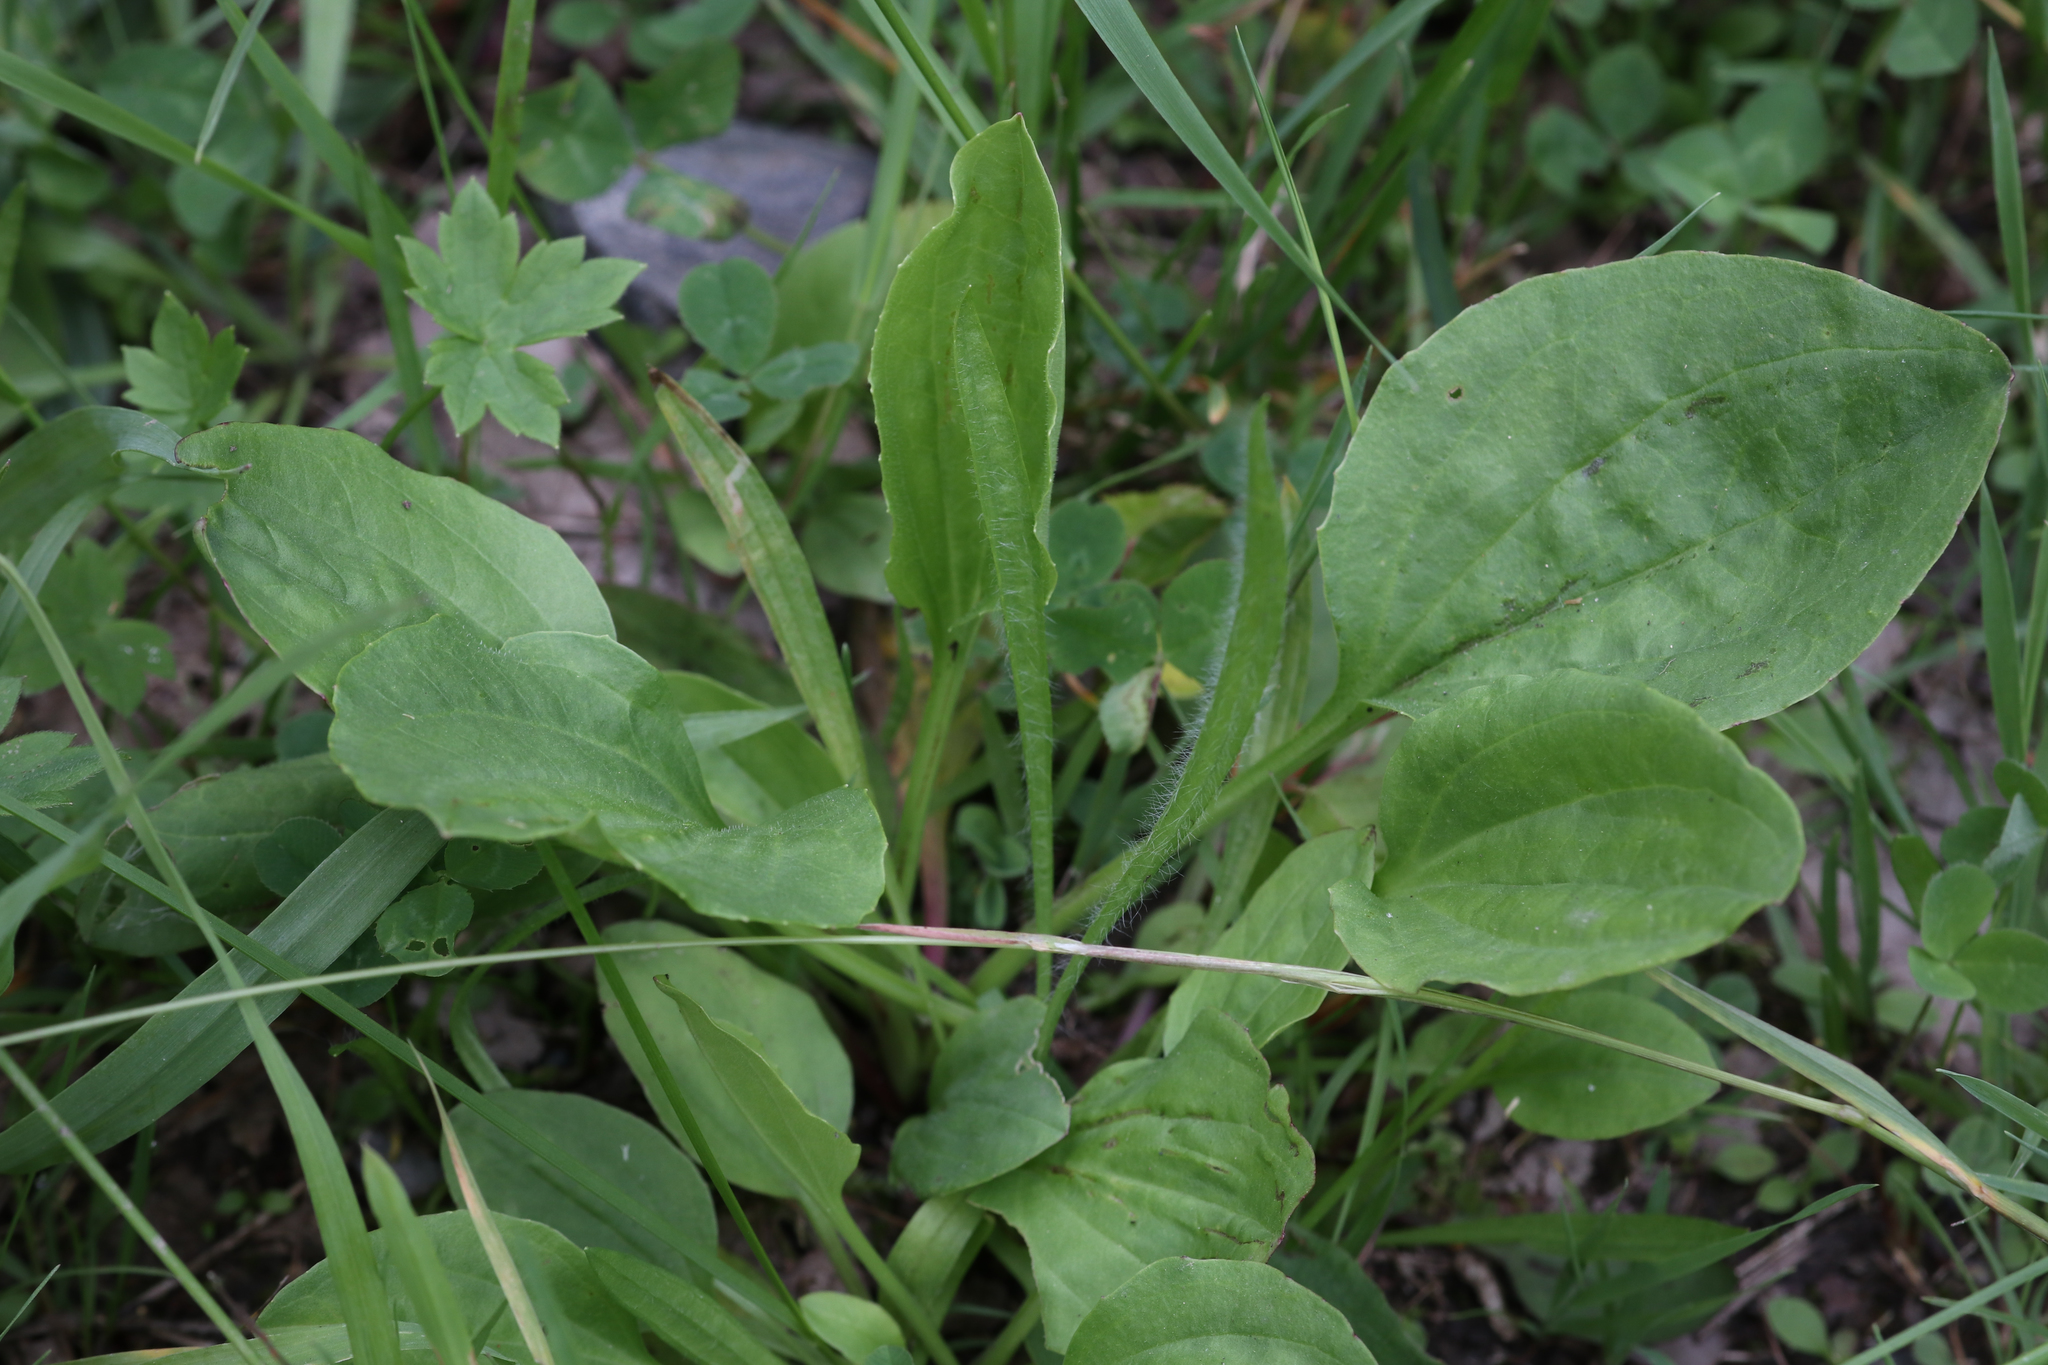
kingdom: Plantae
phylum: Tracheophyta
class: Magnoliopsida
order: Lamiales
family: Plantaginaceae
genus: Plantago
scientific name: Plantago major
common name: Common plantain
